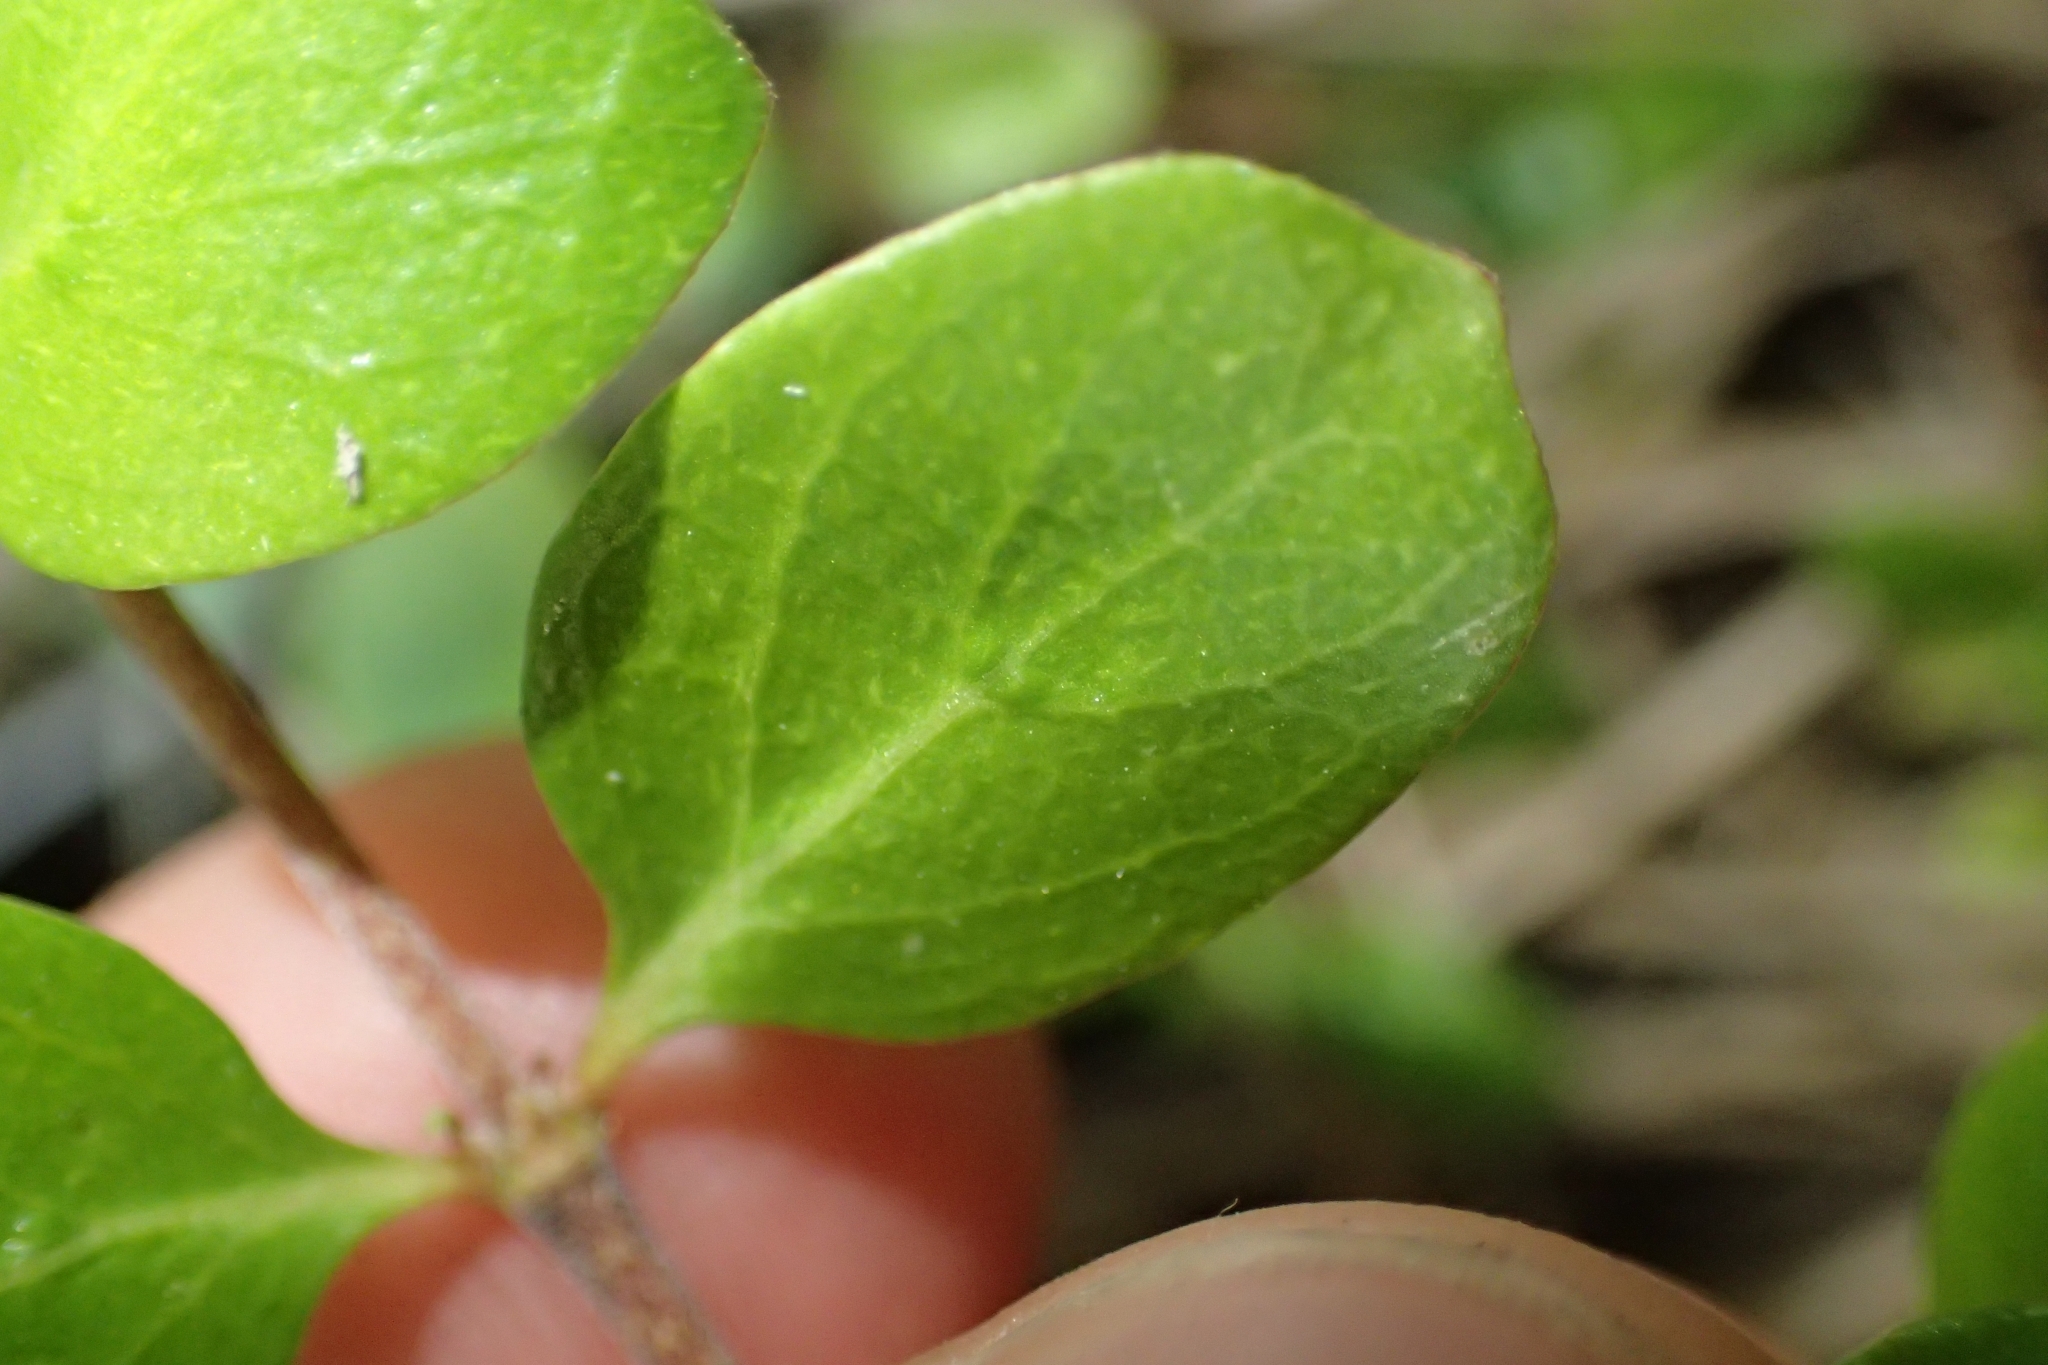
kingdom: Plantae
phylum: Tracheophyta
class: Magnoliopsida
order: Gentianales
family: Rubiaceae
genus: Coprosma
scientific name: Coprosma neglecta
